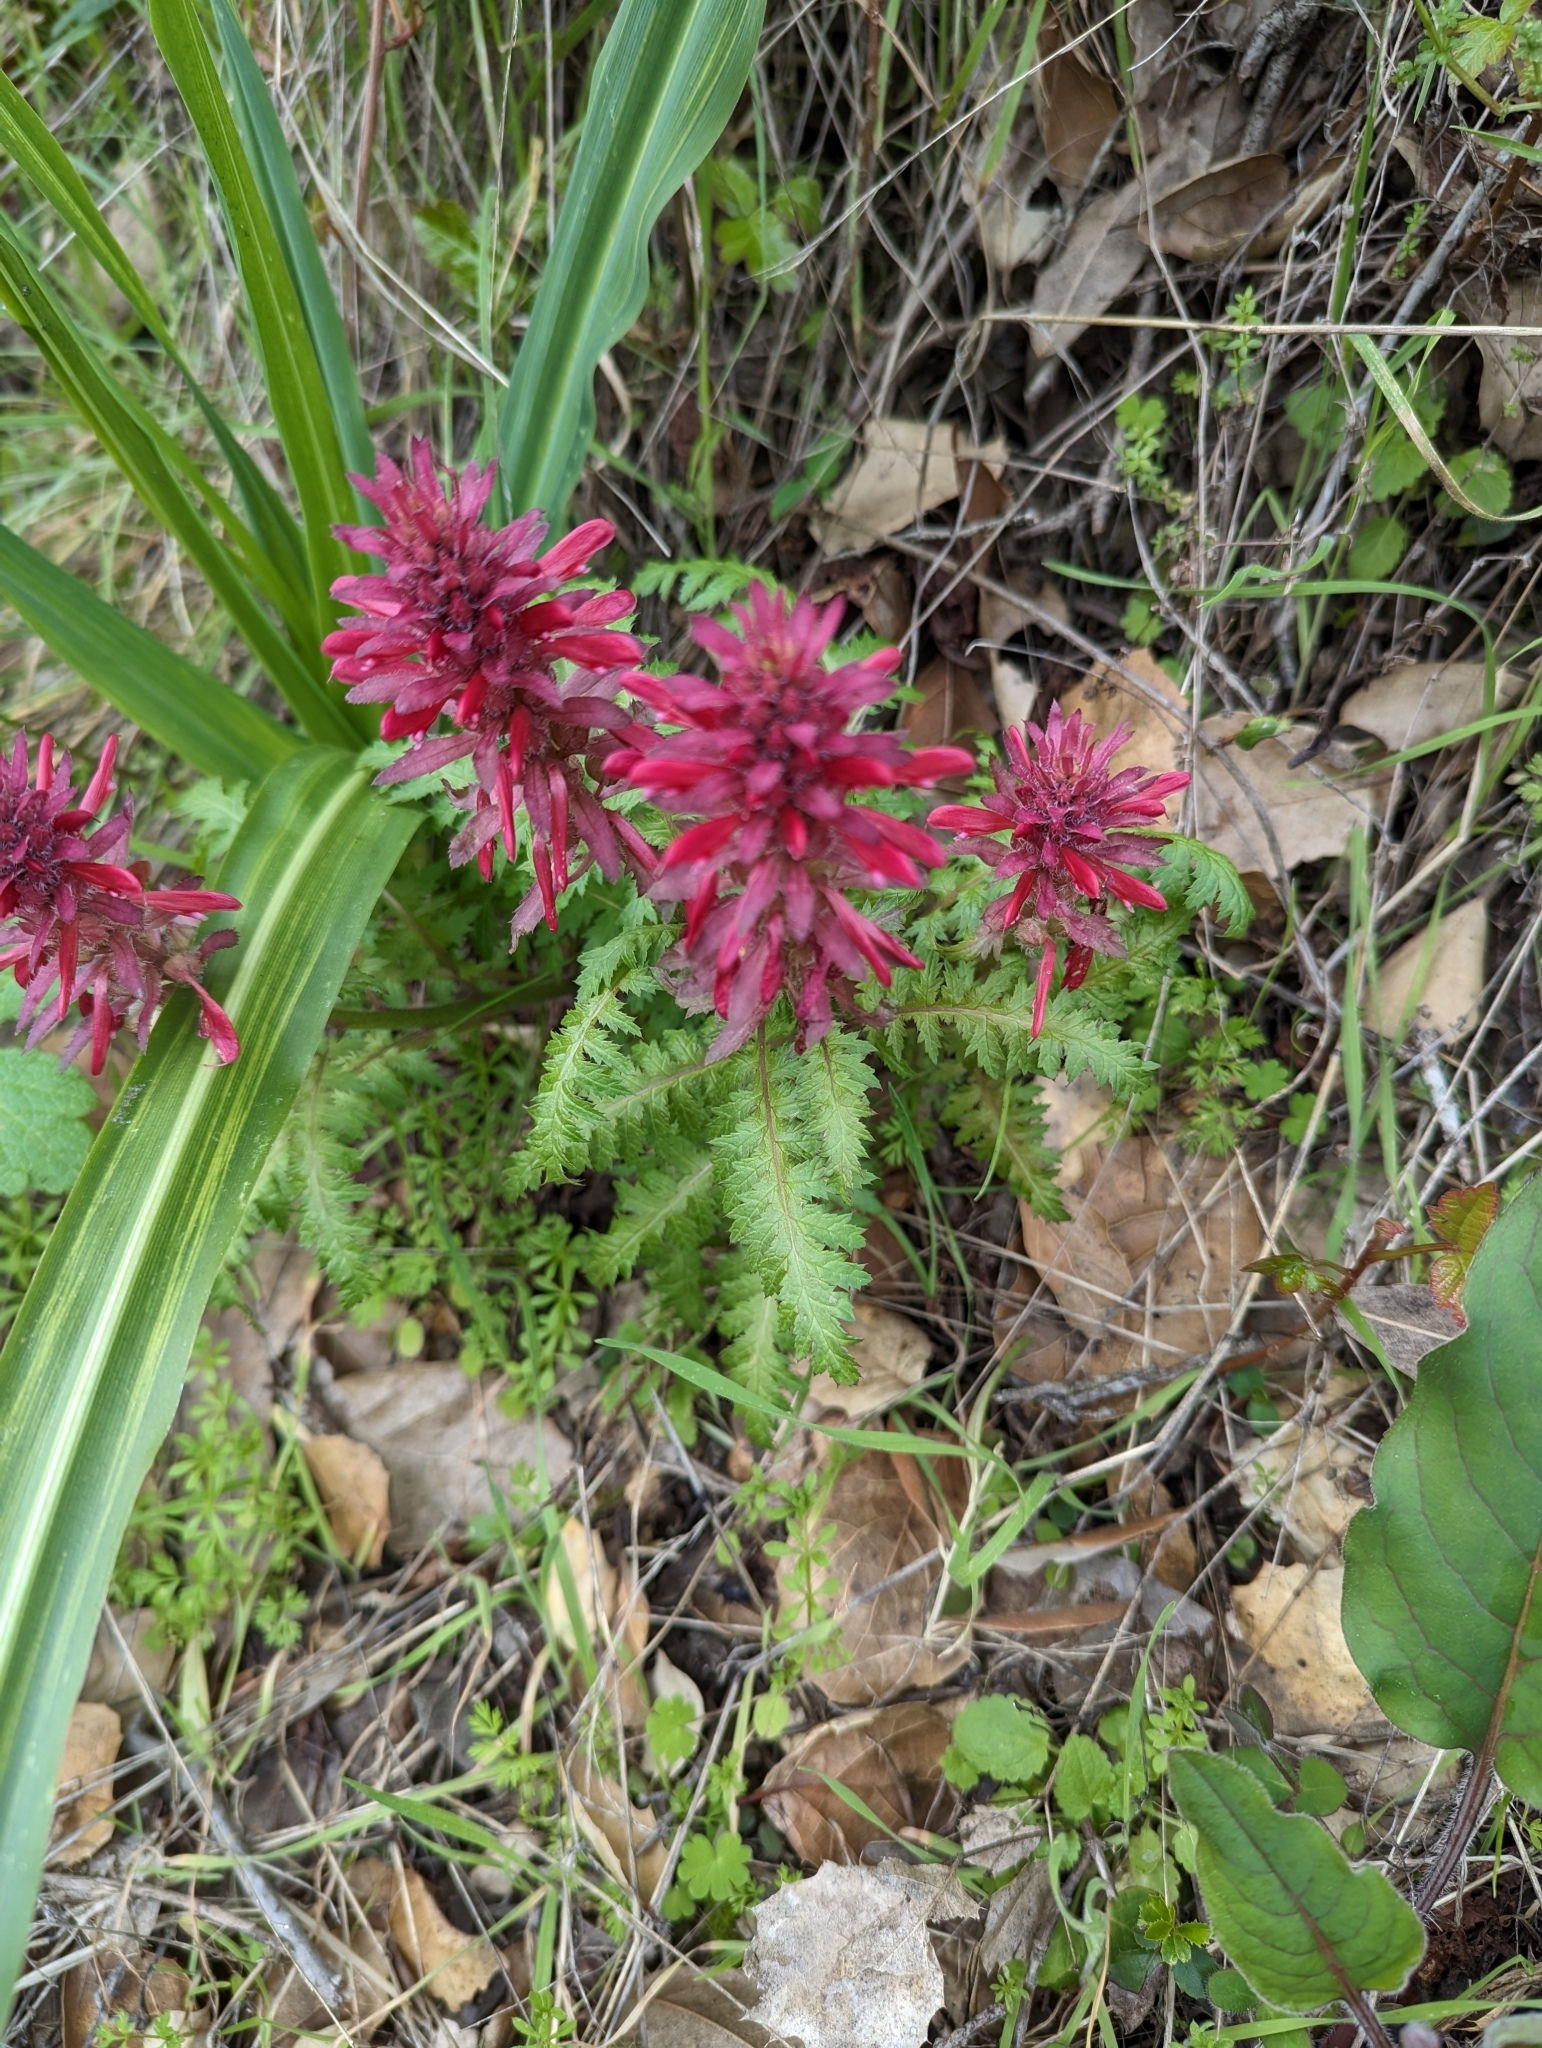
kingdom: Plantae
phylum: Tracheophyta
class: Magnoliopsida
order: Lamiales
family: Orobanchaceae
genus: Pedicularis
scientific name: Pedicularis densiflora
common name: Indian warrior
